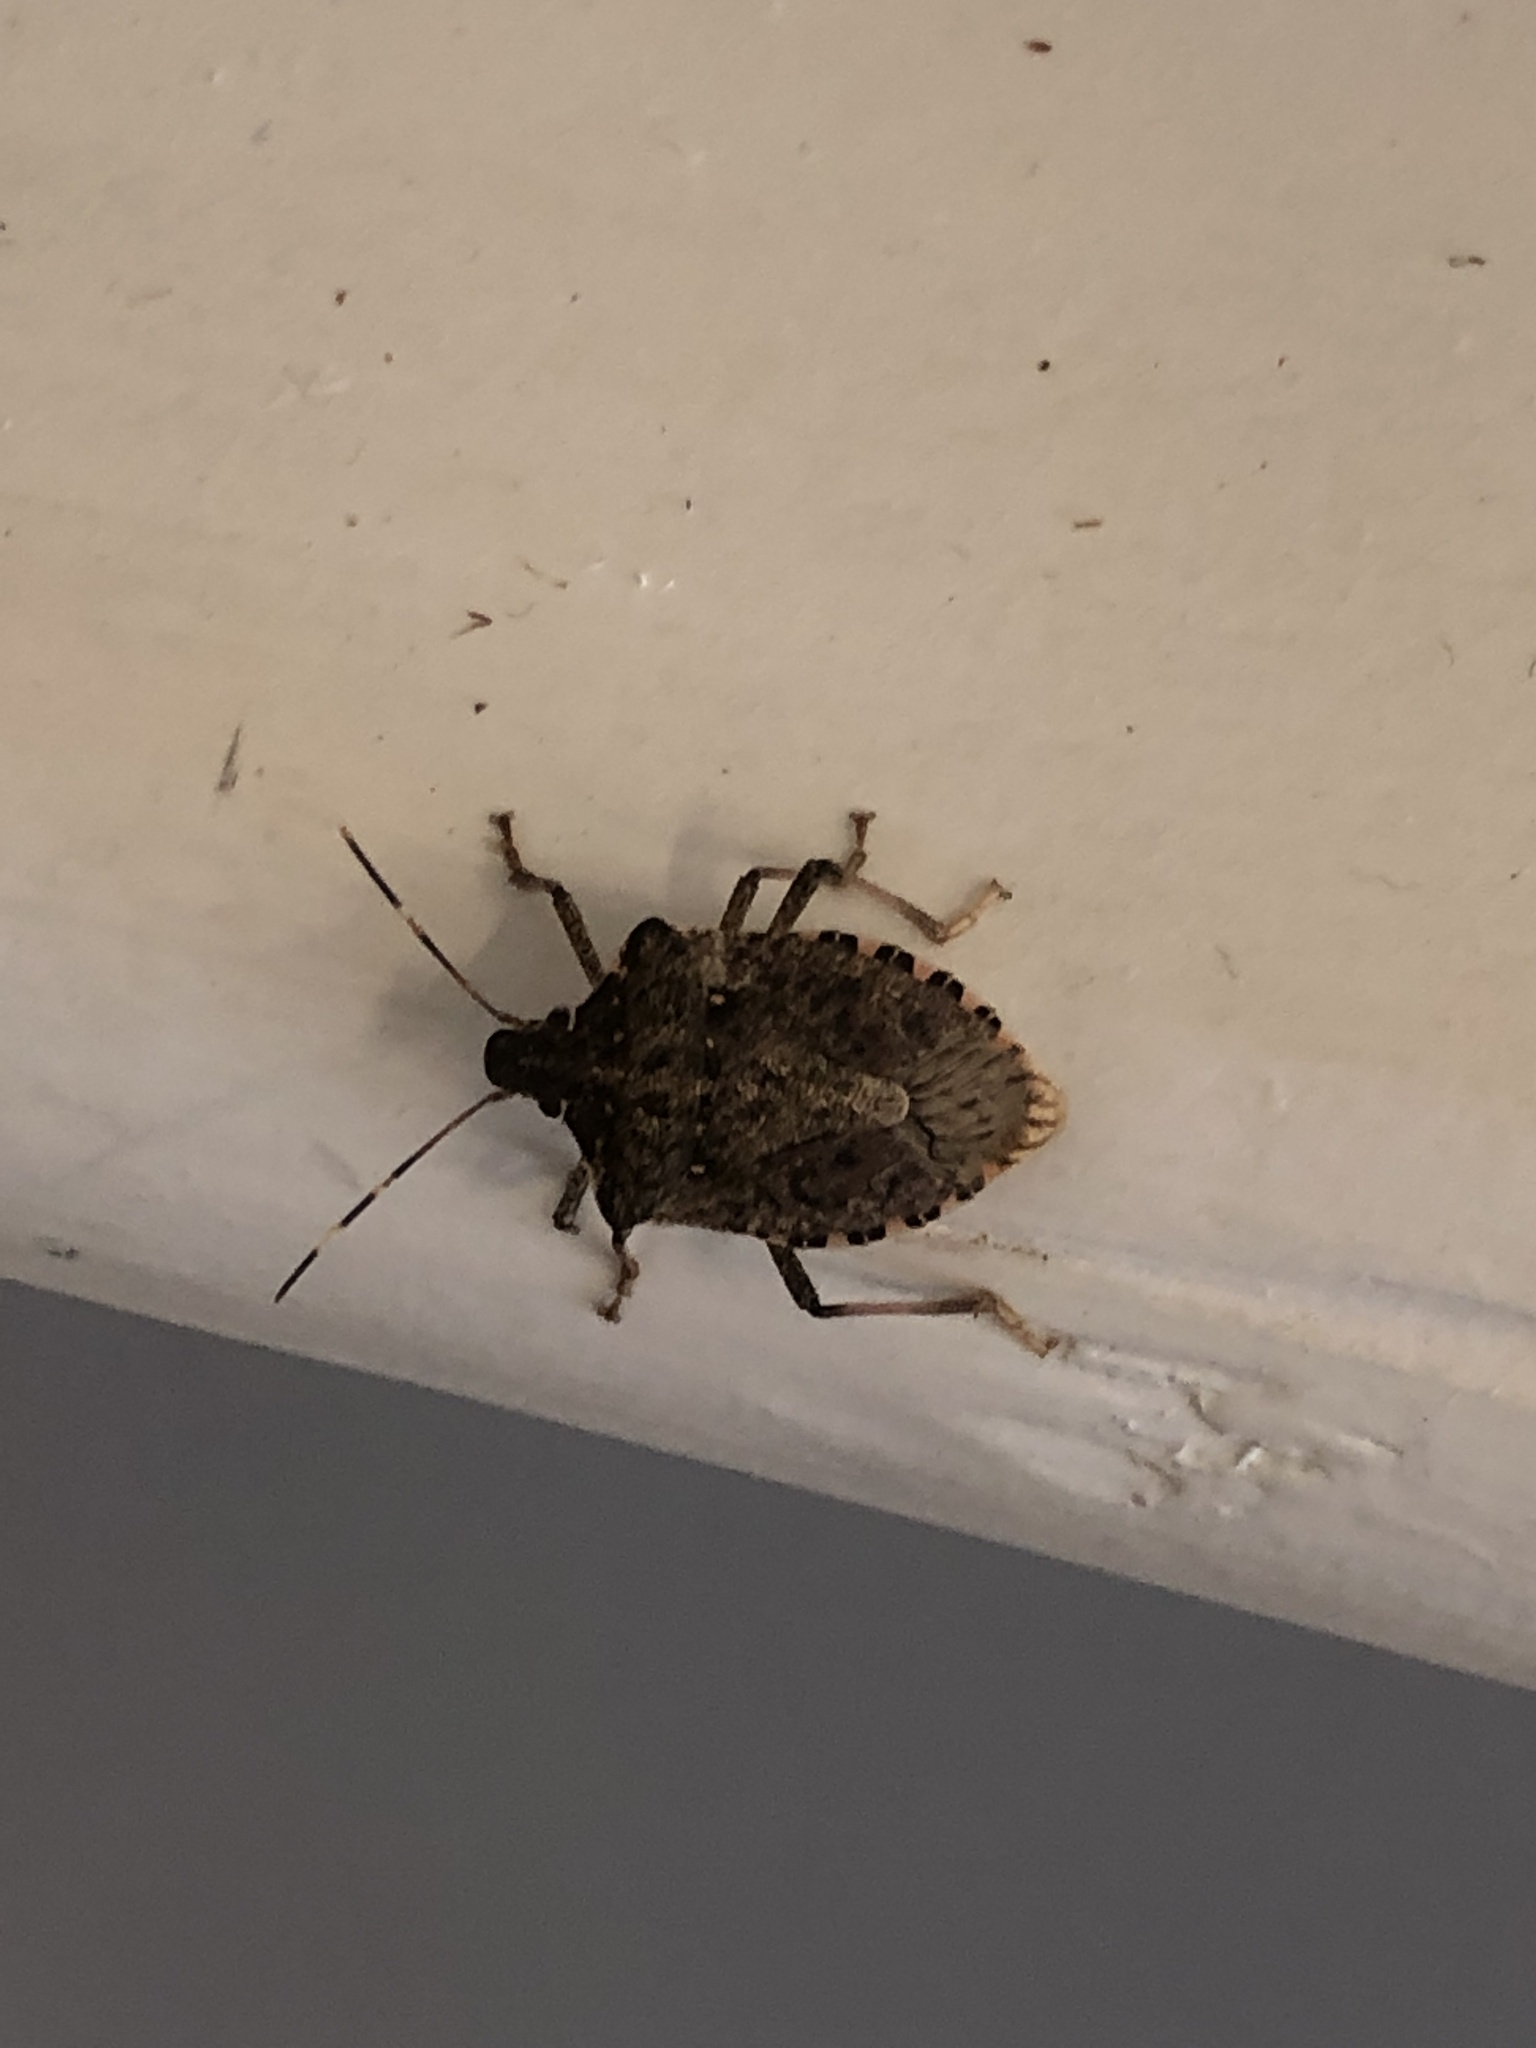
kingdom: Animalia
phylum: Arthropoda
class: Insecta
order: Hemiptera
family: Pentatomidae
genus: Halyomorpha
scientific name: Halyomorpha halys
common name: Brown marmorated stink bug
